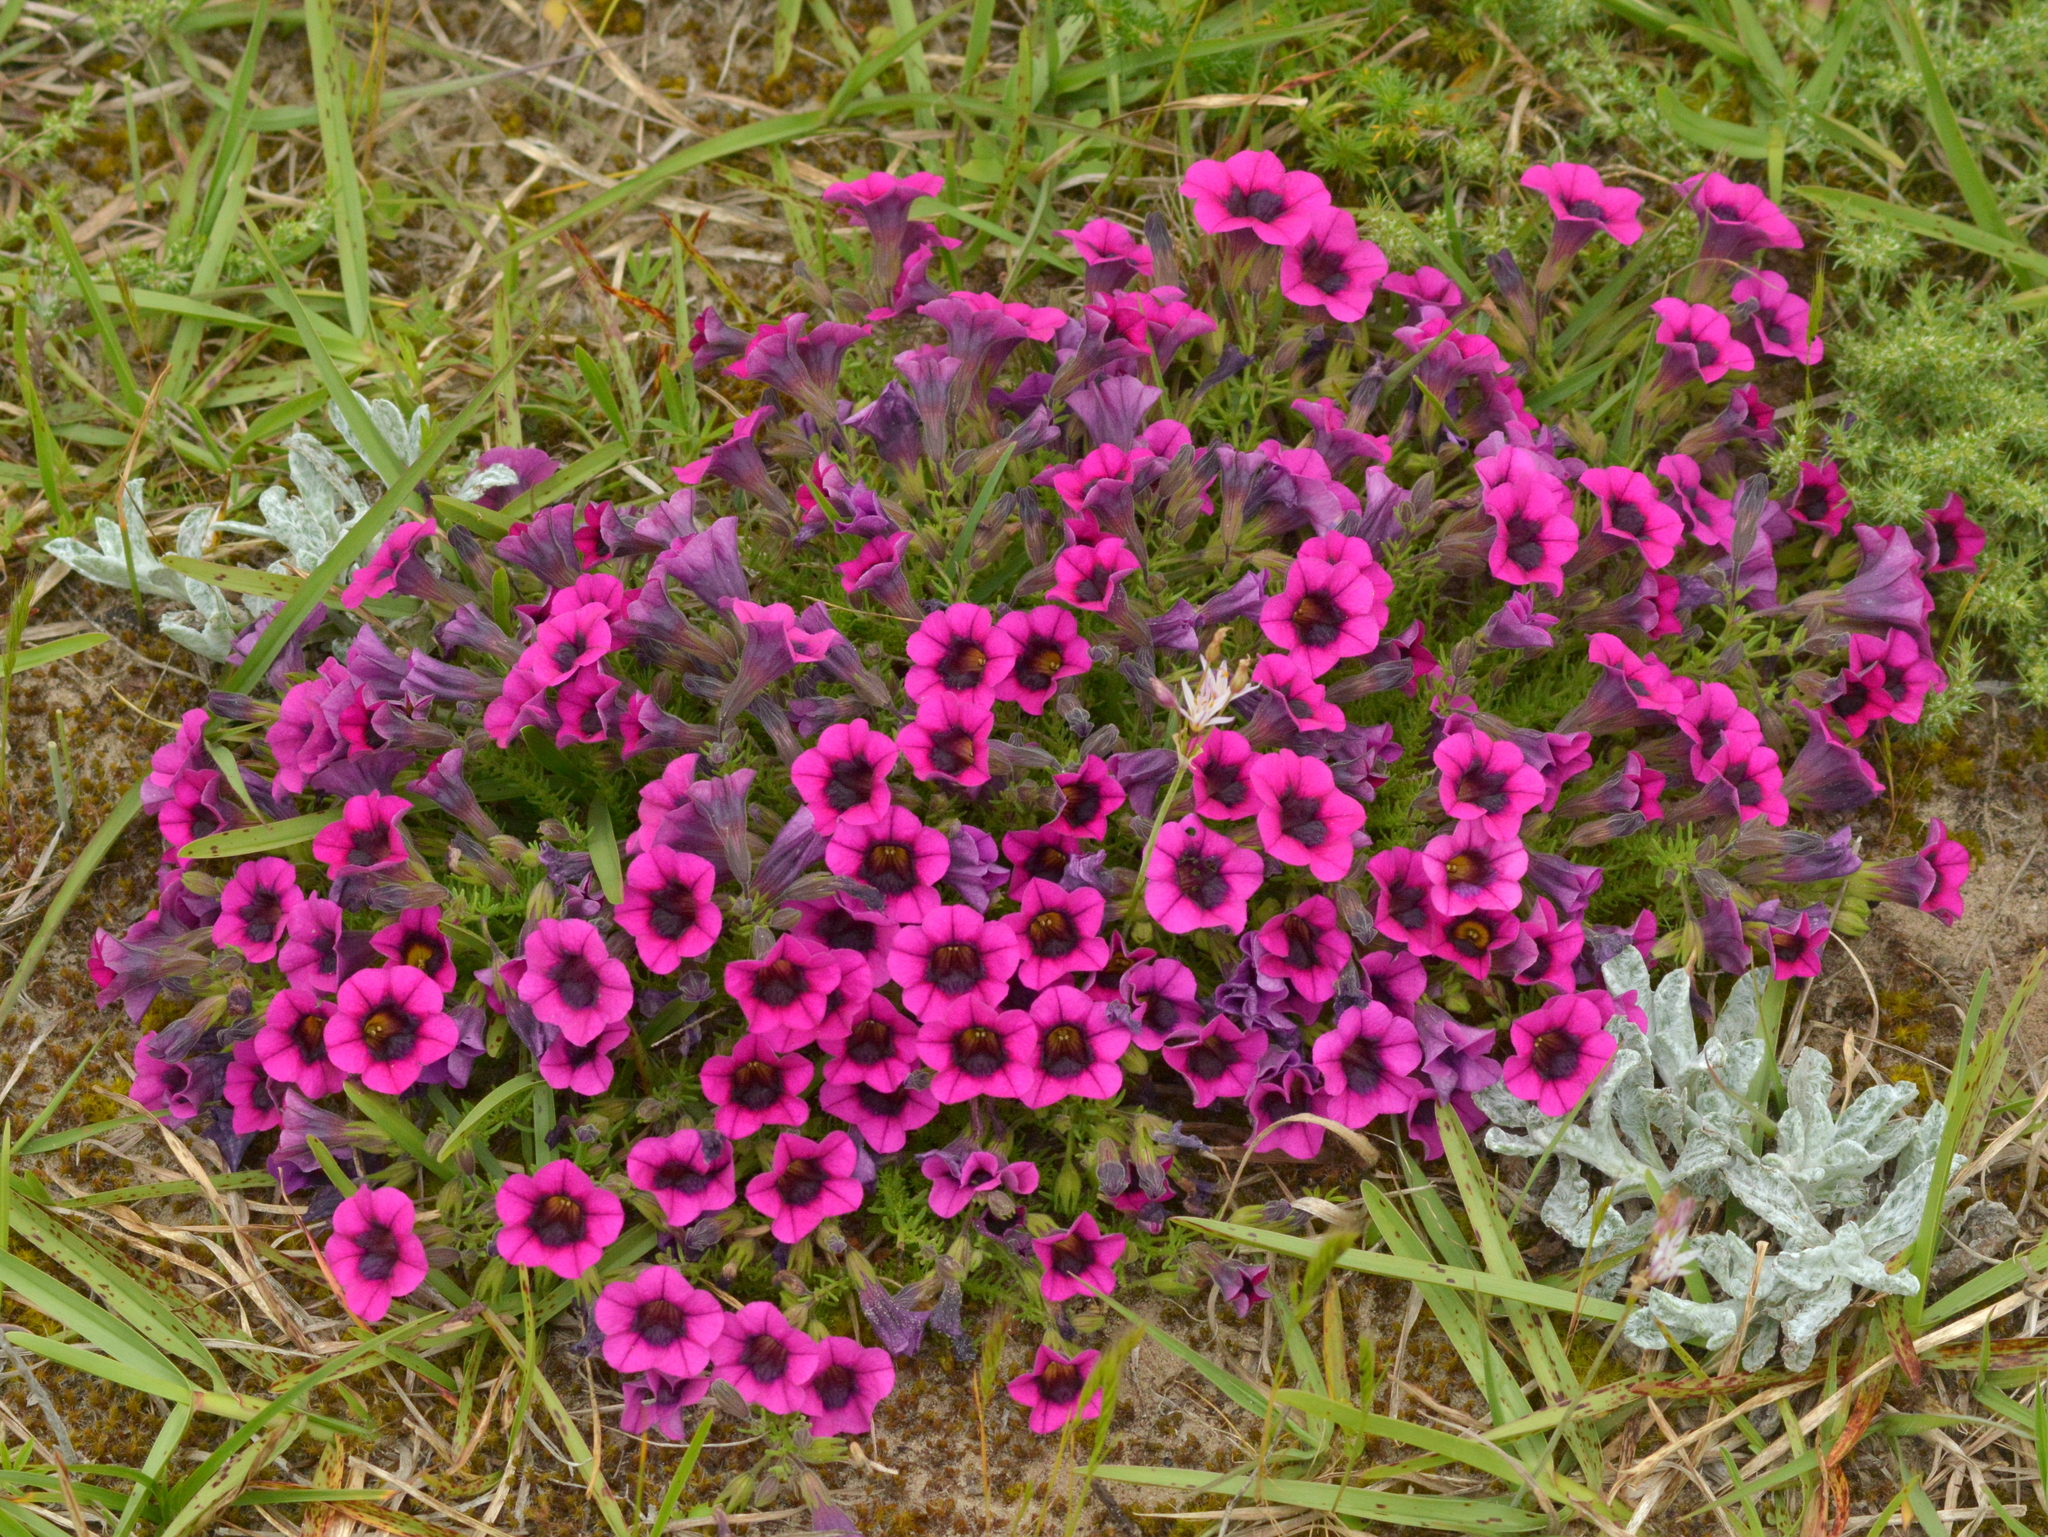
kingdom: Plantae
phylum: Tracheophyta
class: Magnoliopsida
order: Solanales
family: Solanaceae
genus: Calibrachoa
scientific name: Calibrachoa heterophylla
